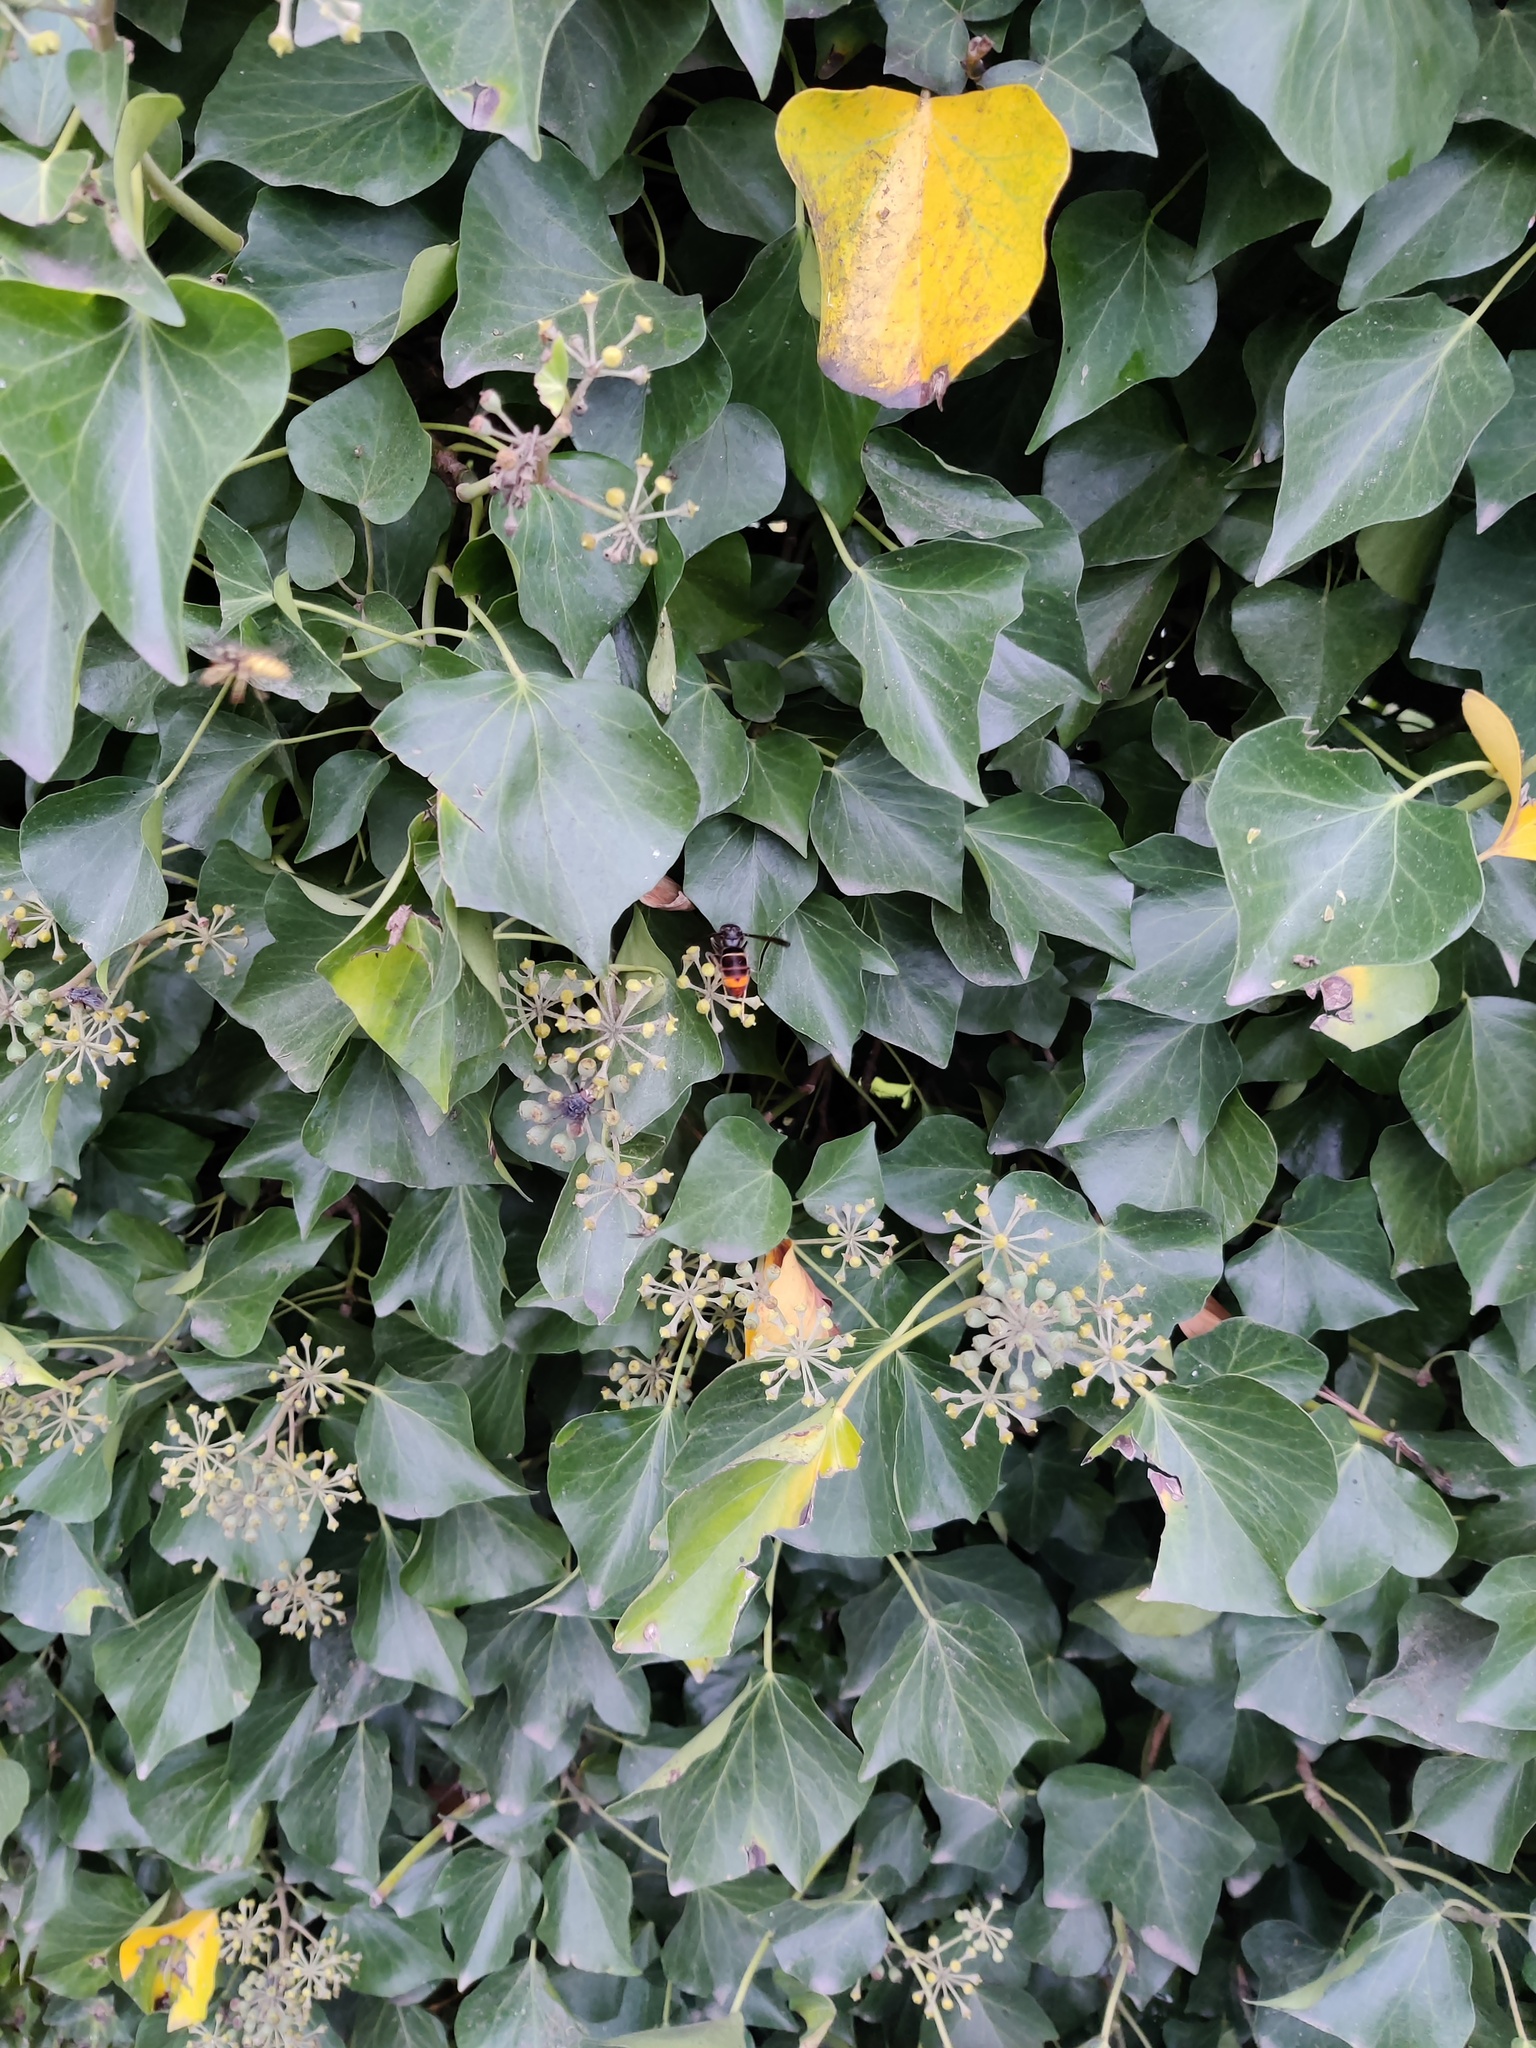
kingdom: Animalia
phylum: Arthropoda
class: Insecta
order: Hymenoptera
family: Vespidae
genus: Vespa
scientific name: Vespa velutina
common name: Asian hornet
